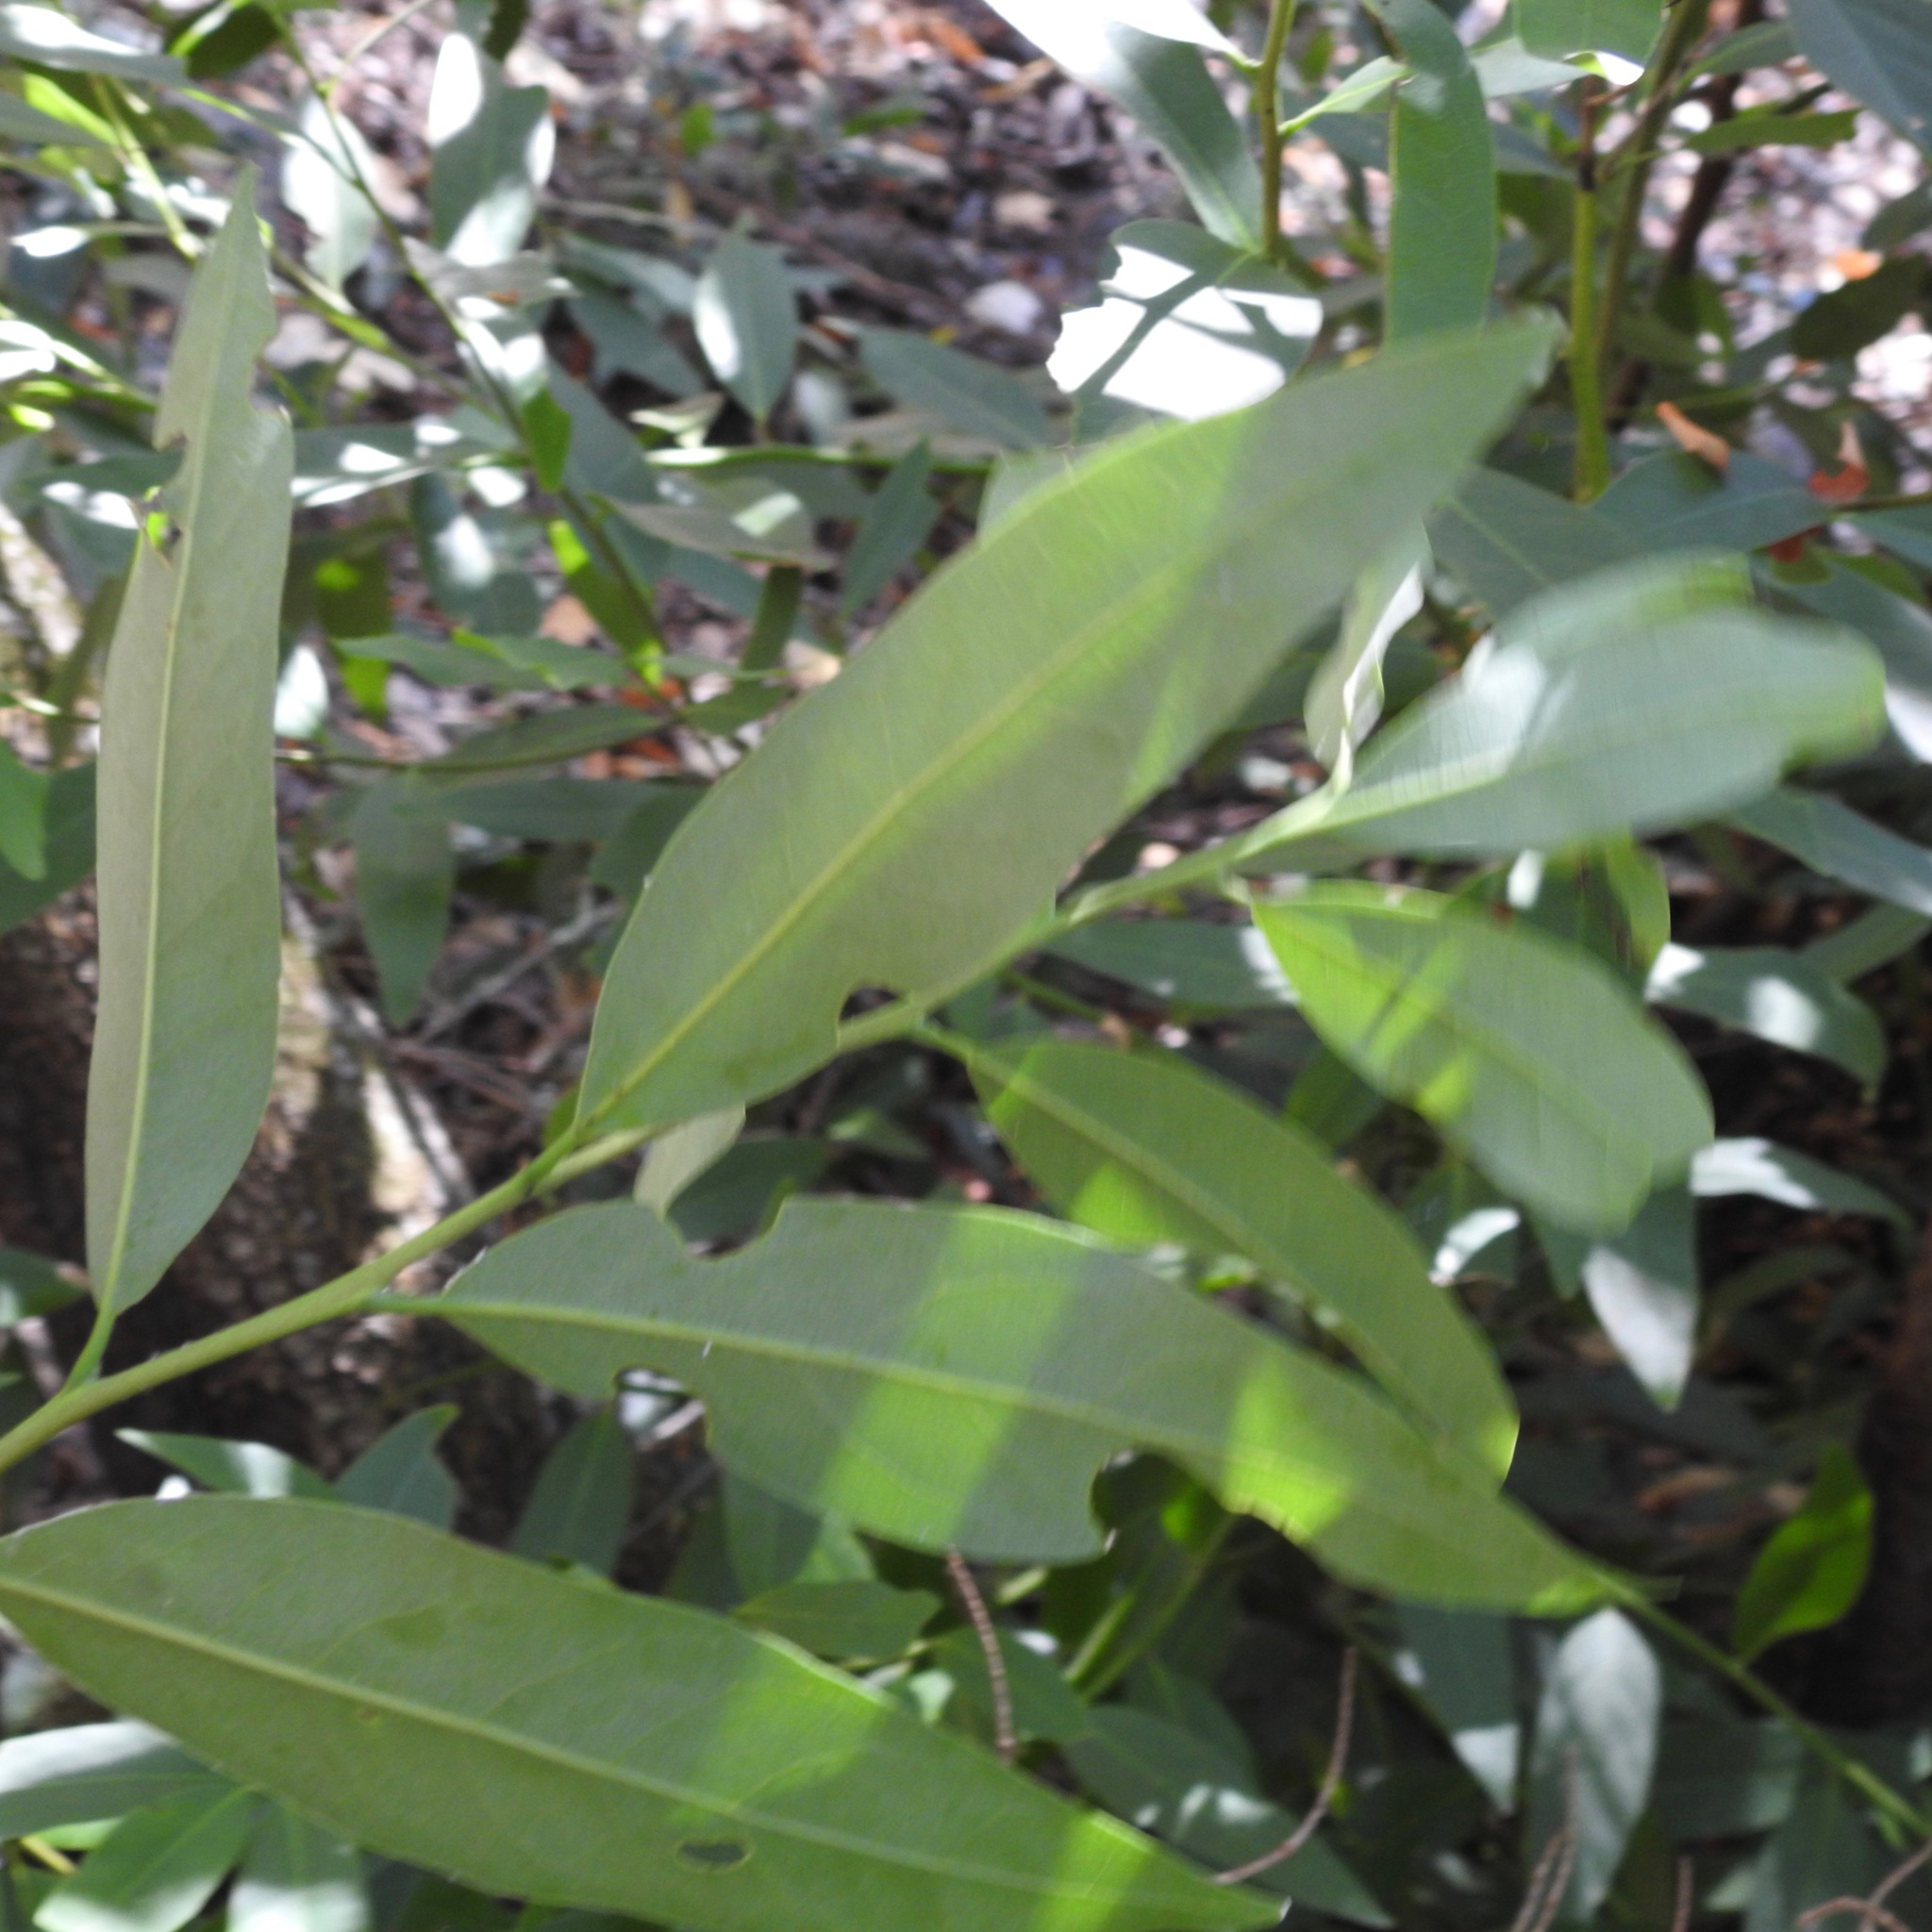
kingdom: Plantae
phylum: Tracheophyta
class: Magnoliopsida
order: Laurales
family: Lauraceae
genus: Umbellularia
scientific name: Umbellularia californica
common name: California bay
